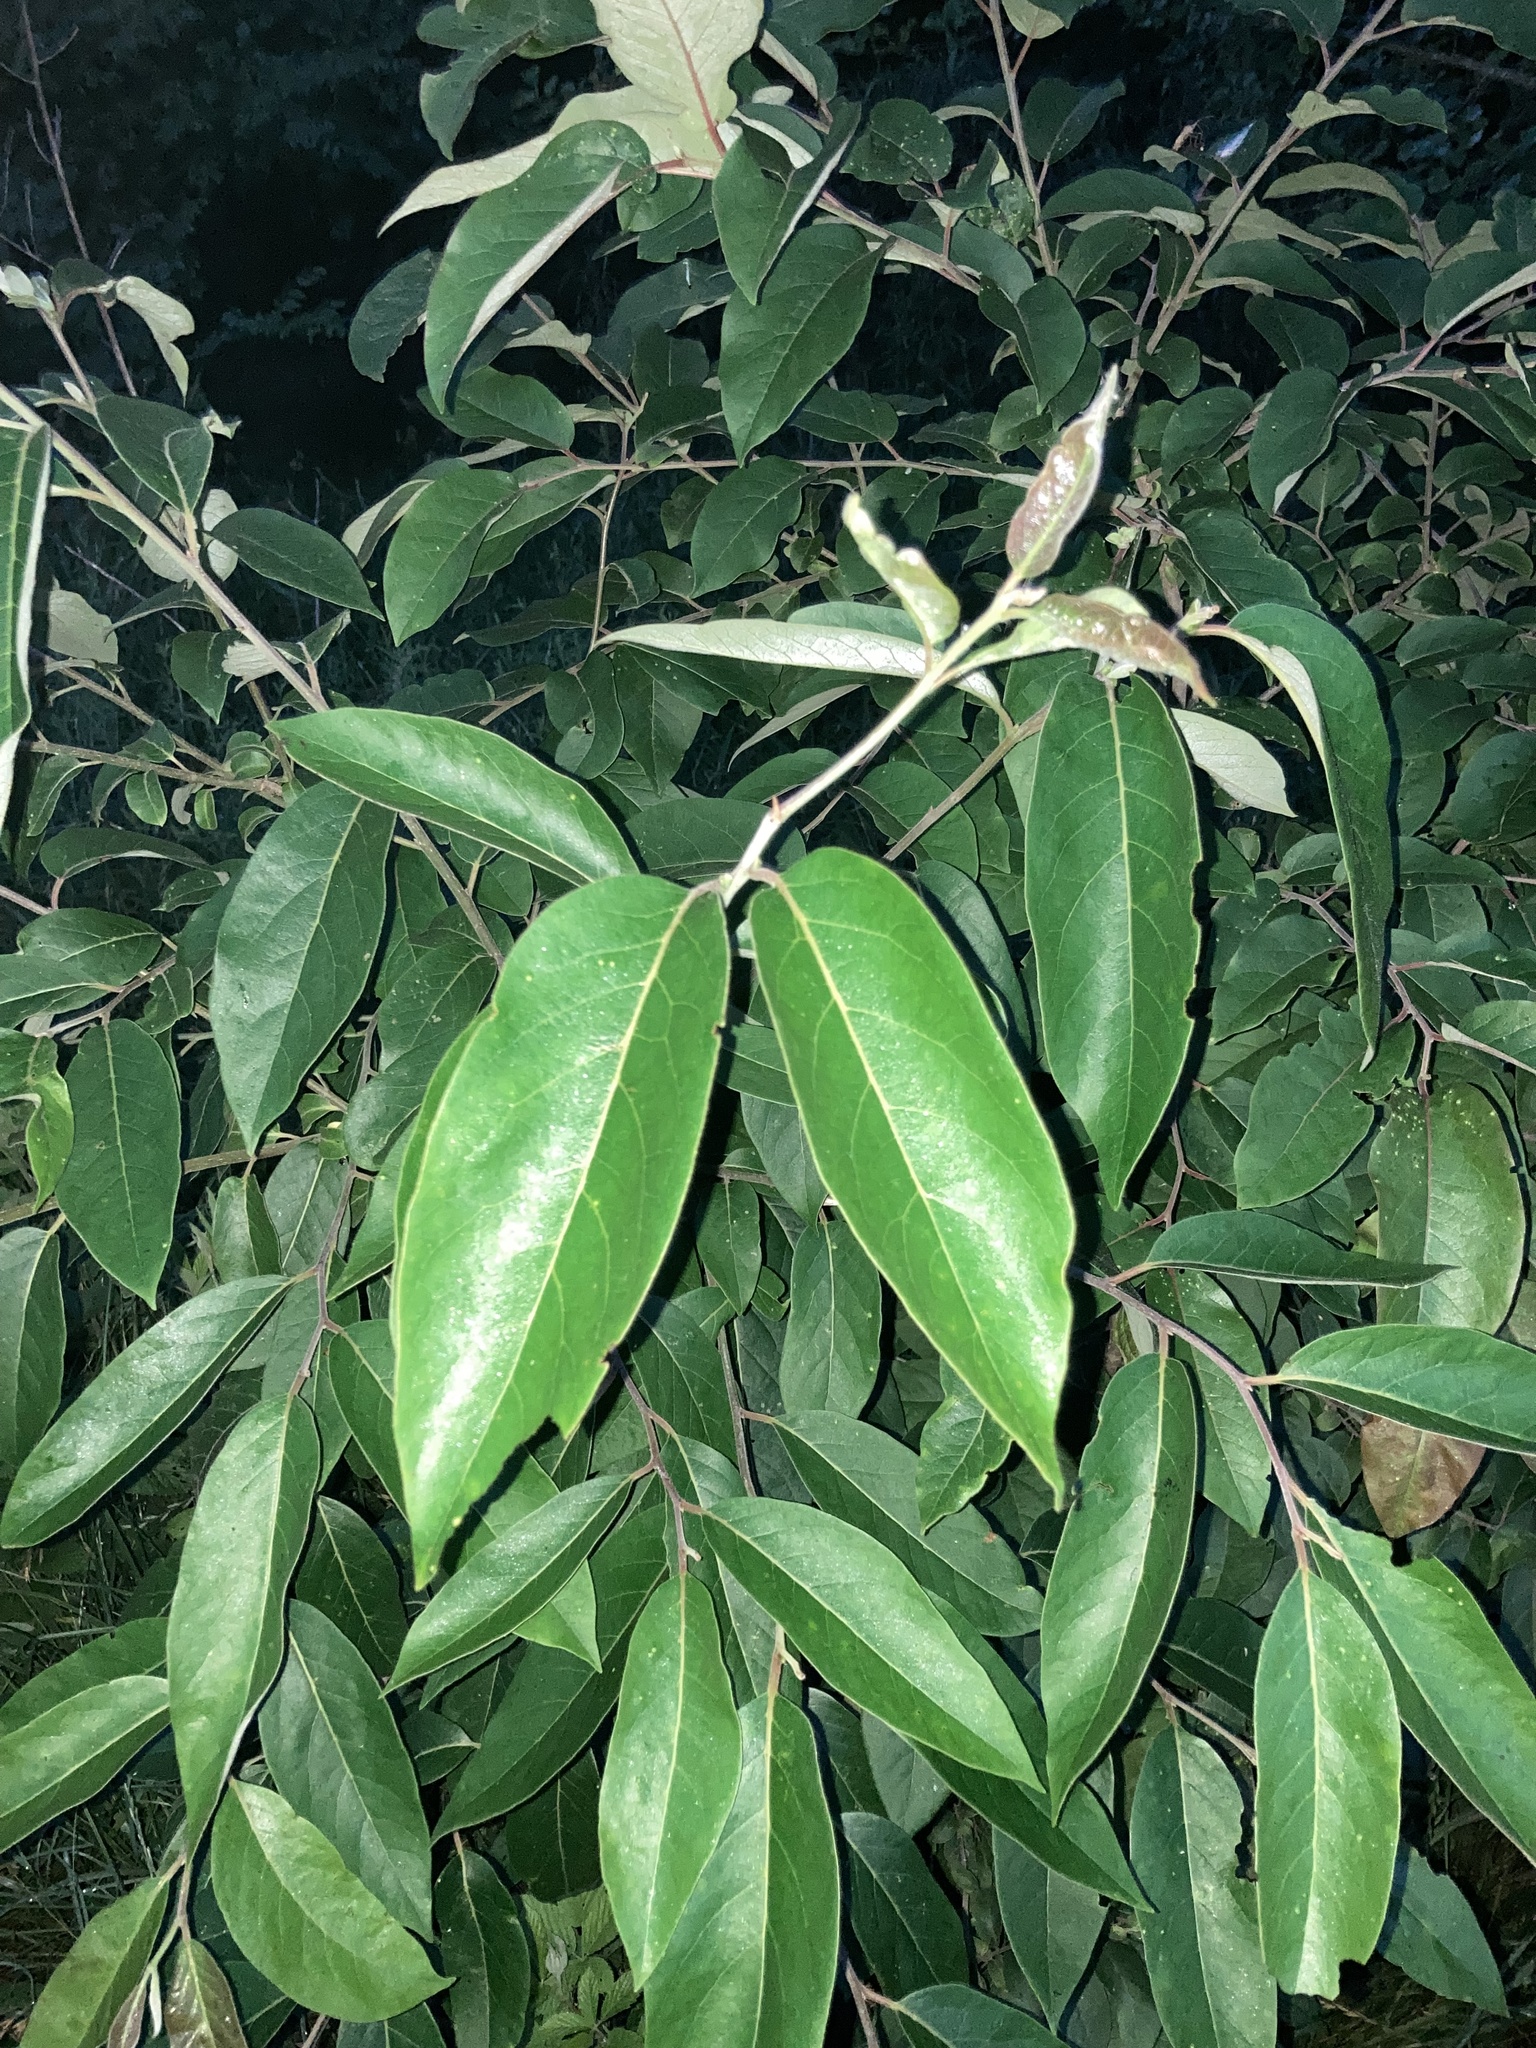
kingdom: Plantae
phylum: Tracheophyta
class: Magnoliopsida
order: Ericales
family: Ebenaceae
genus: Diospyros
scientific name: Diospyros virginiana
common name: Persimmon
